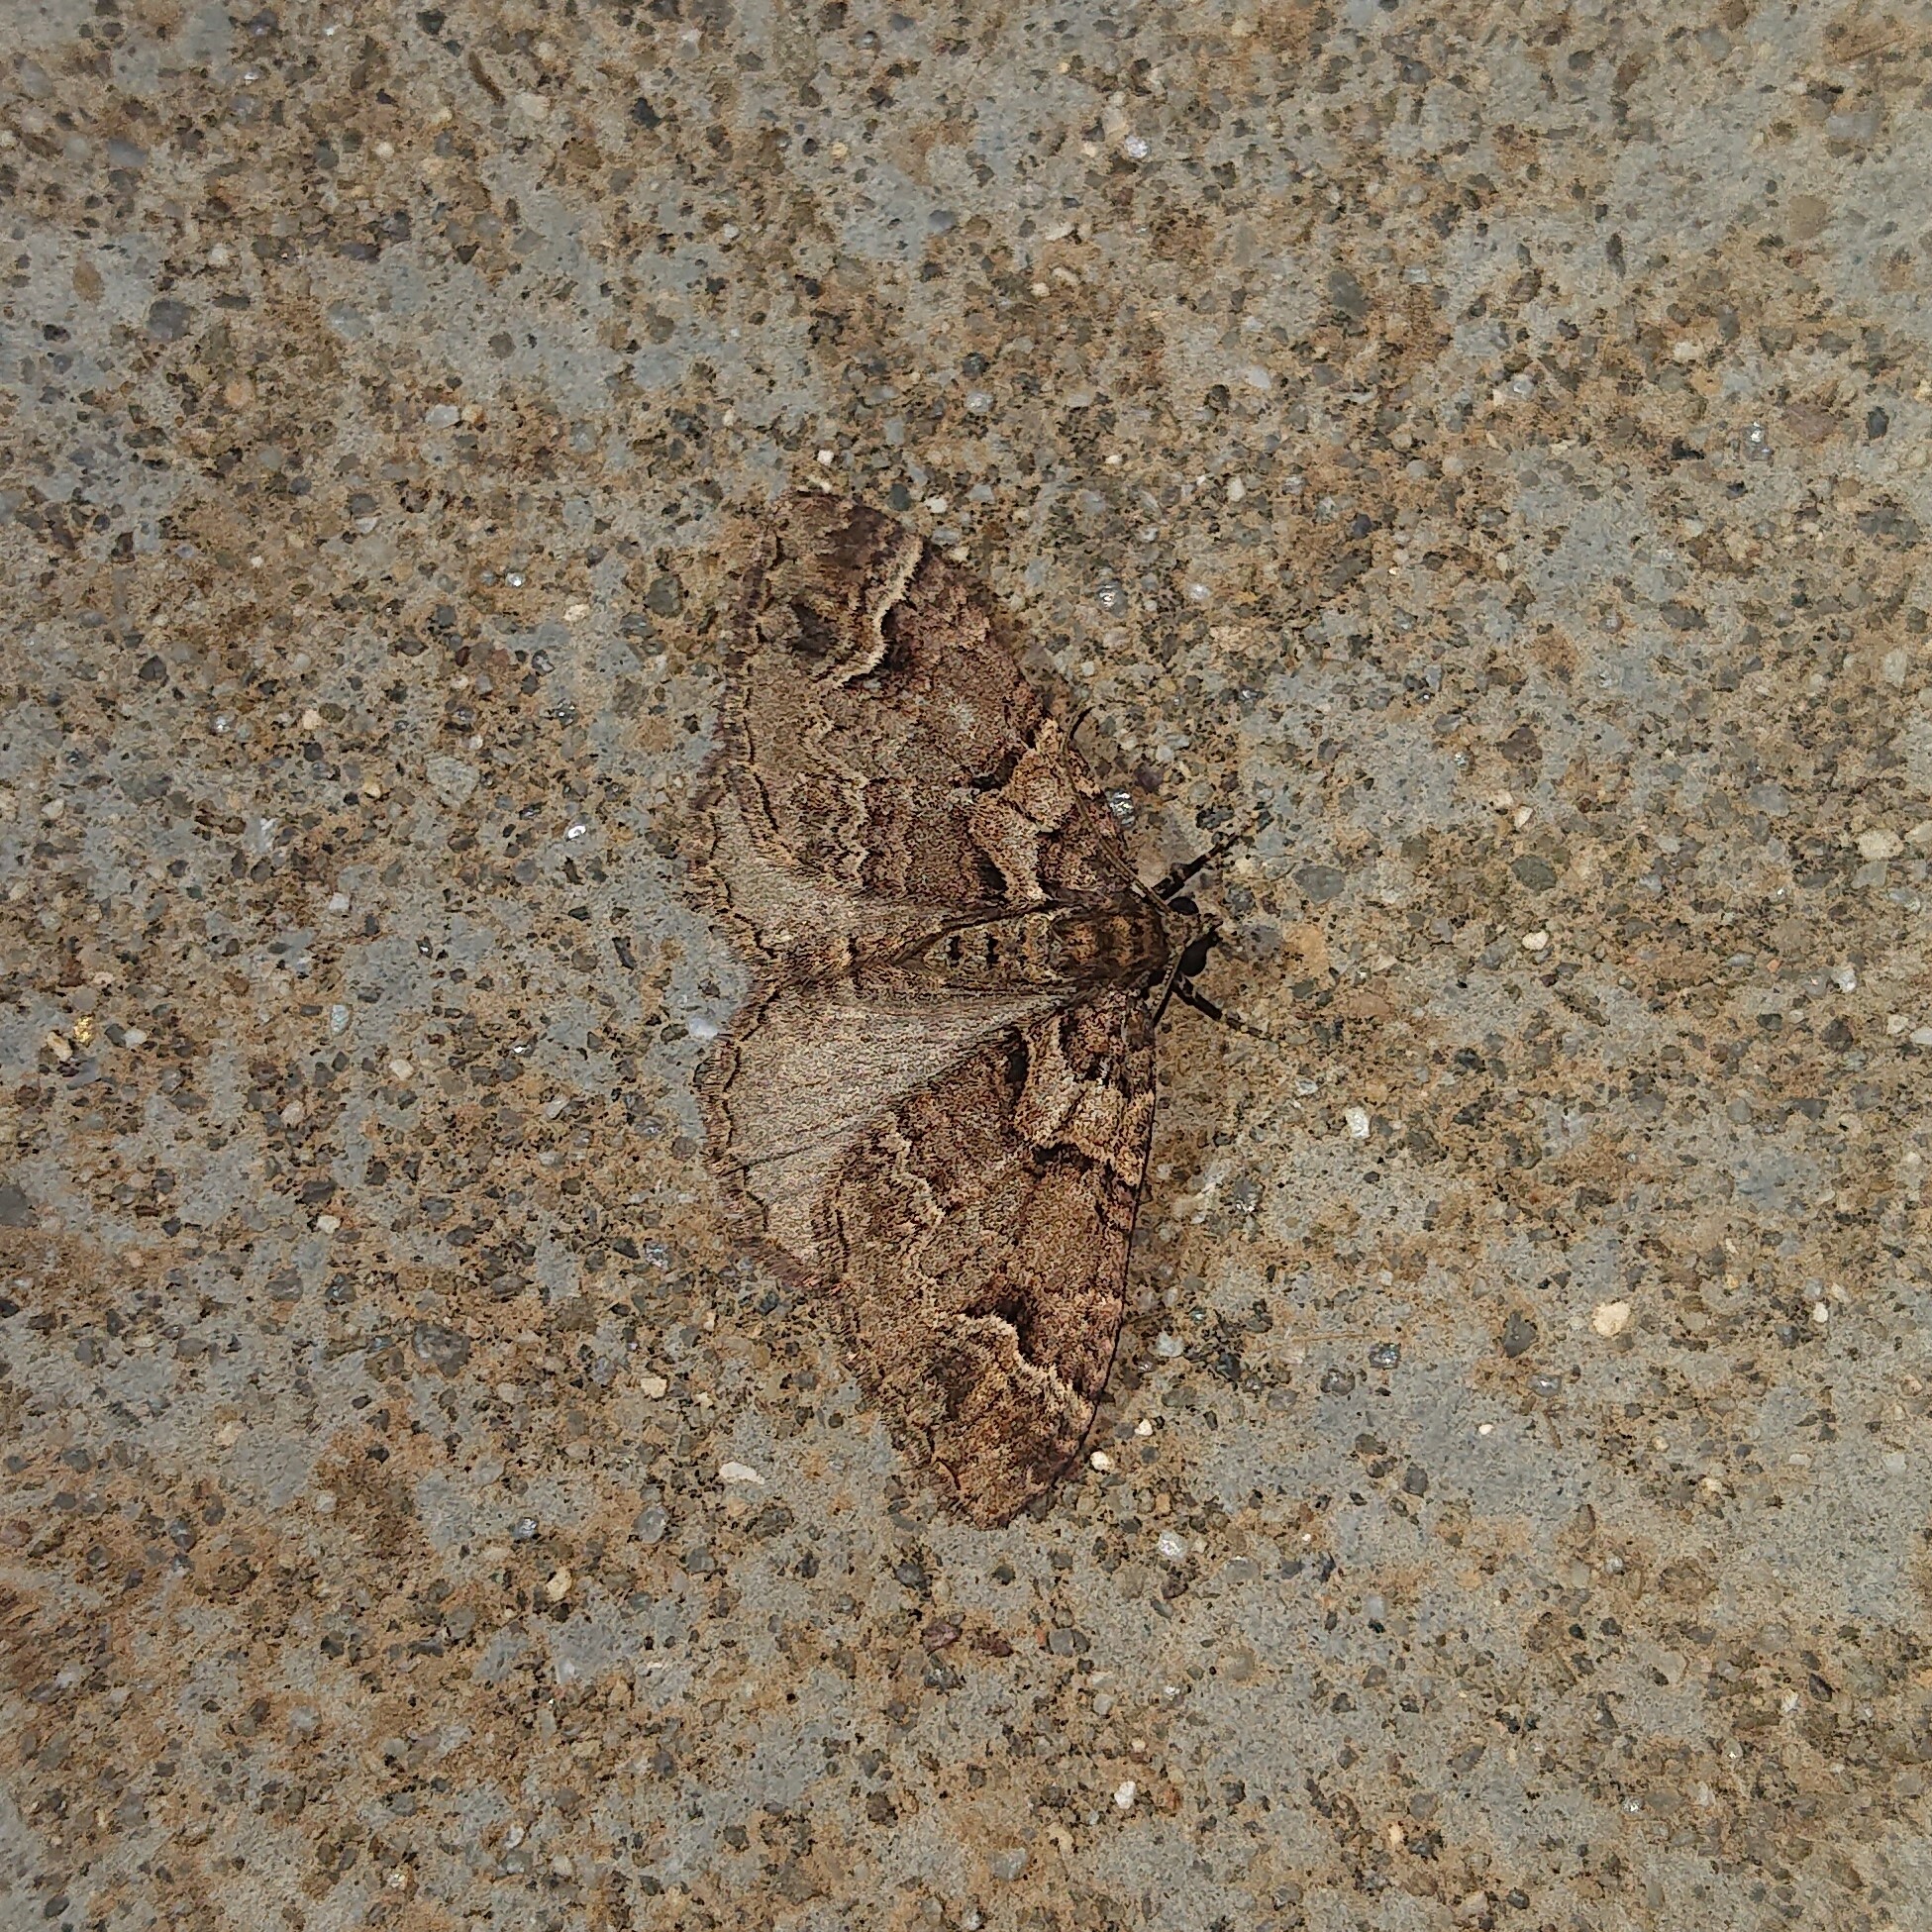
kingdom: Animalia
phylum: Arthropoda
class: Insecta
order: Lepidoptera
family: Geometridae
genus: Catarhoe
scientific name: Catarhoe basochesiata
